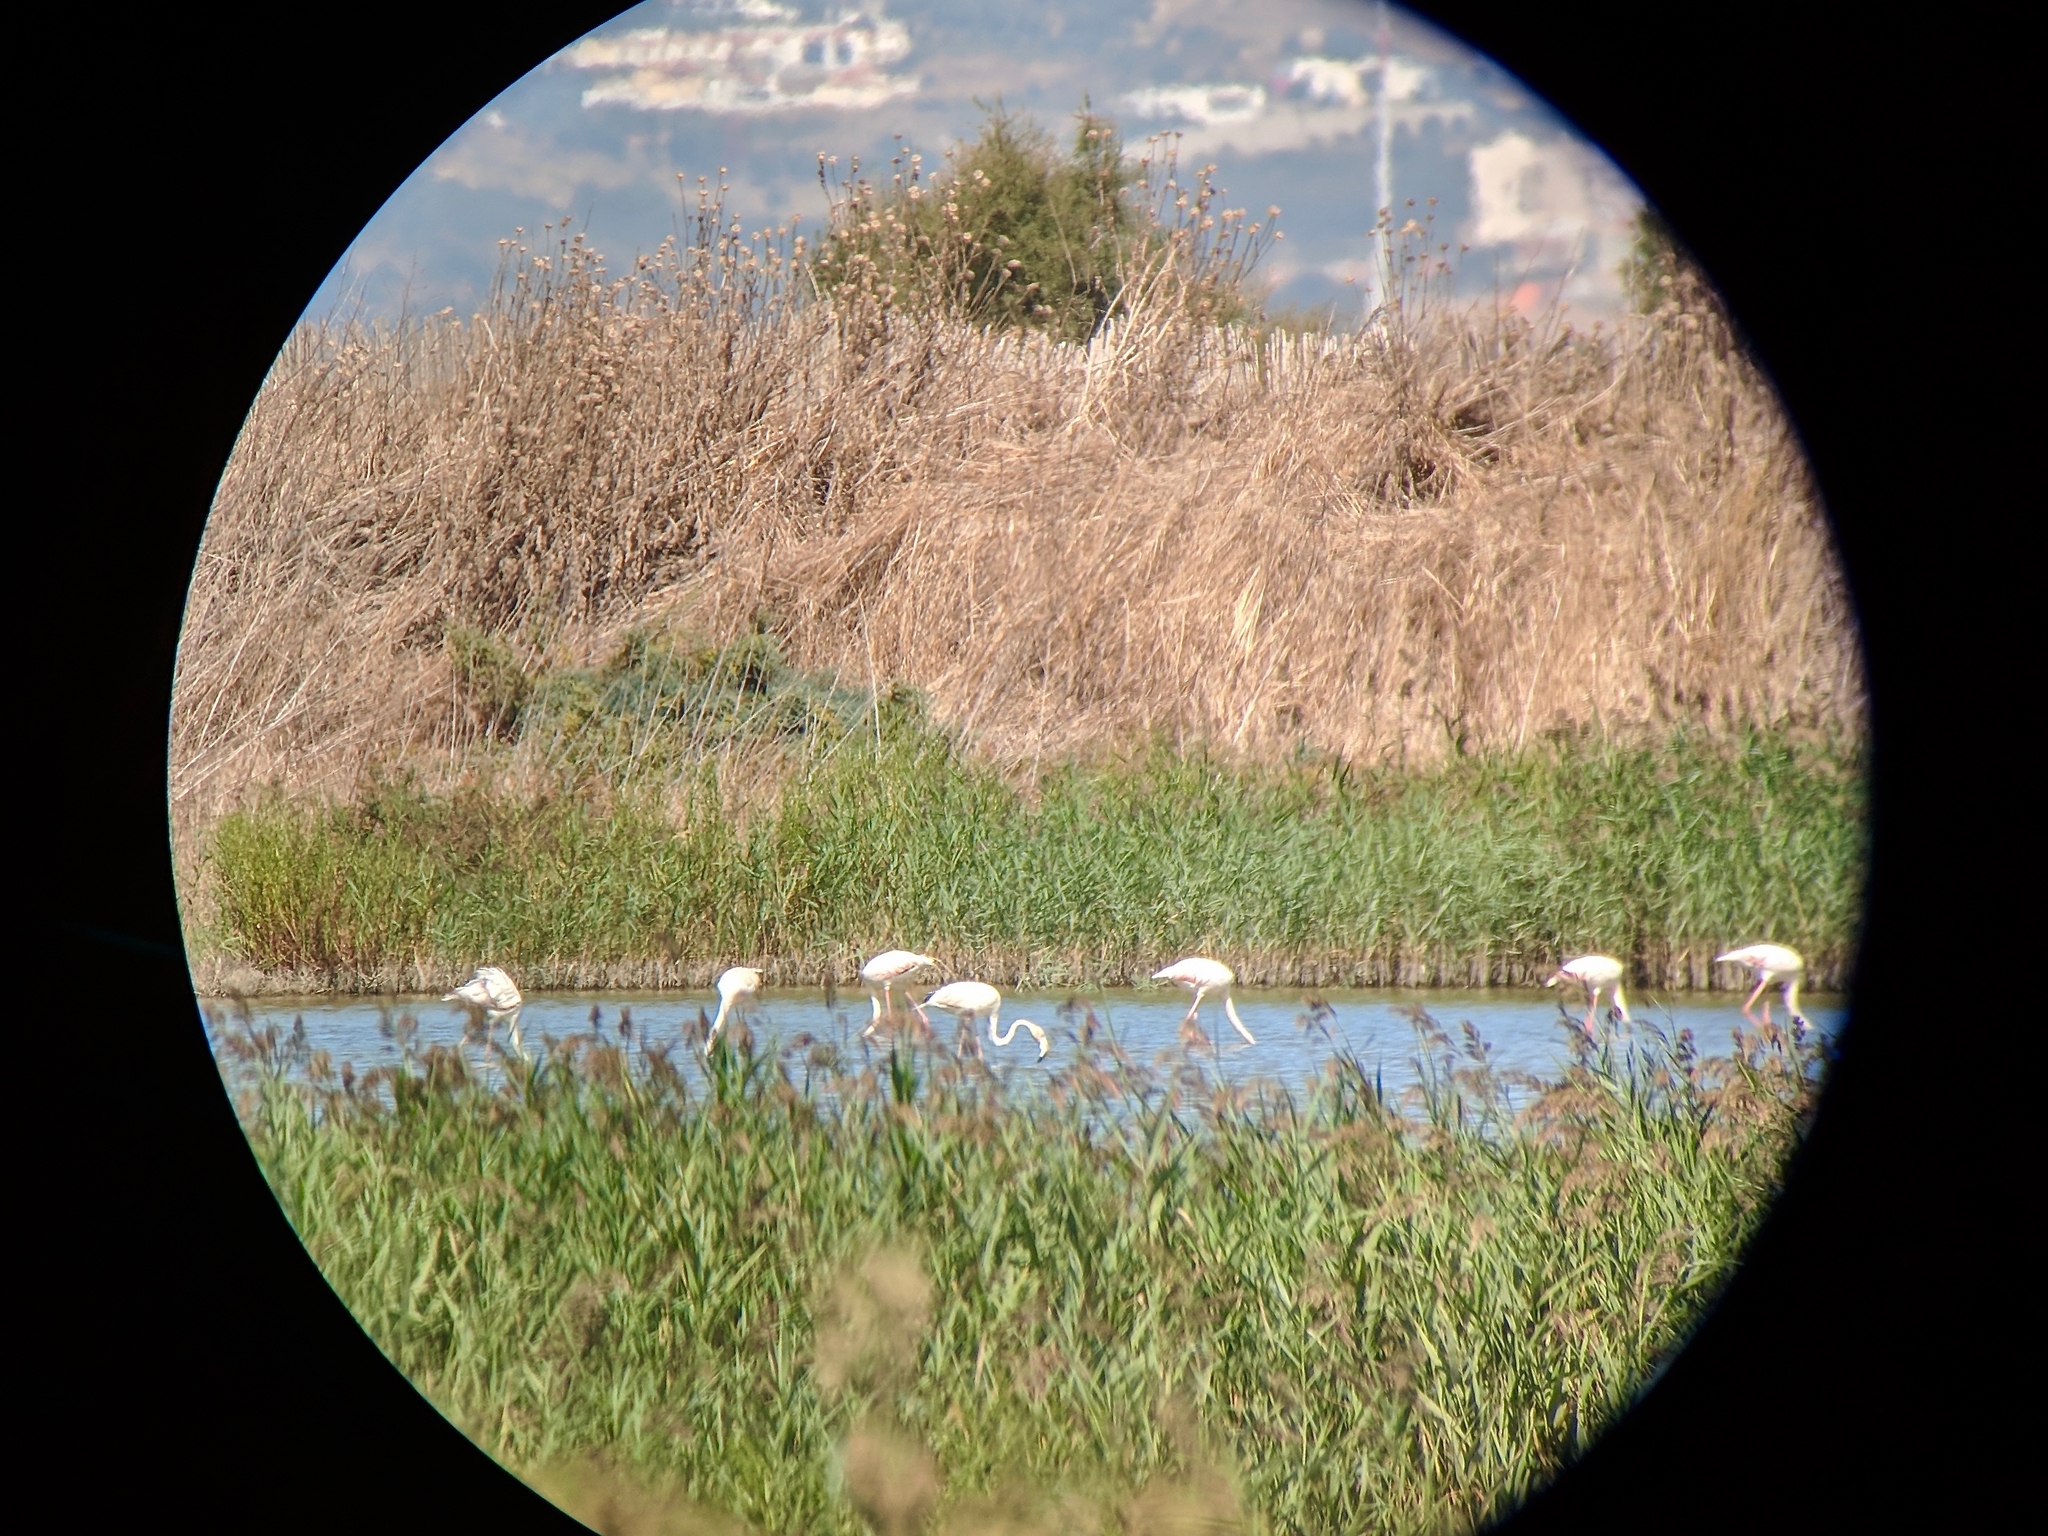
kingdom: Animalia
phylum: Chordata
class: Aves
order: Phoenicopteriformes
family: Phoenicopteridae
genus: Phoenicopterus
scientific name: Phoenicopterus roseus
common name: Greater flamingo
